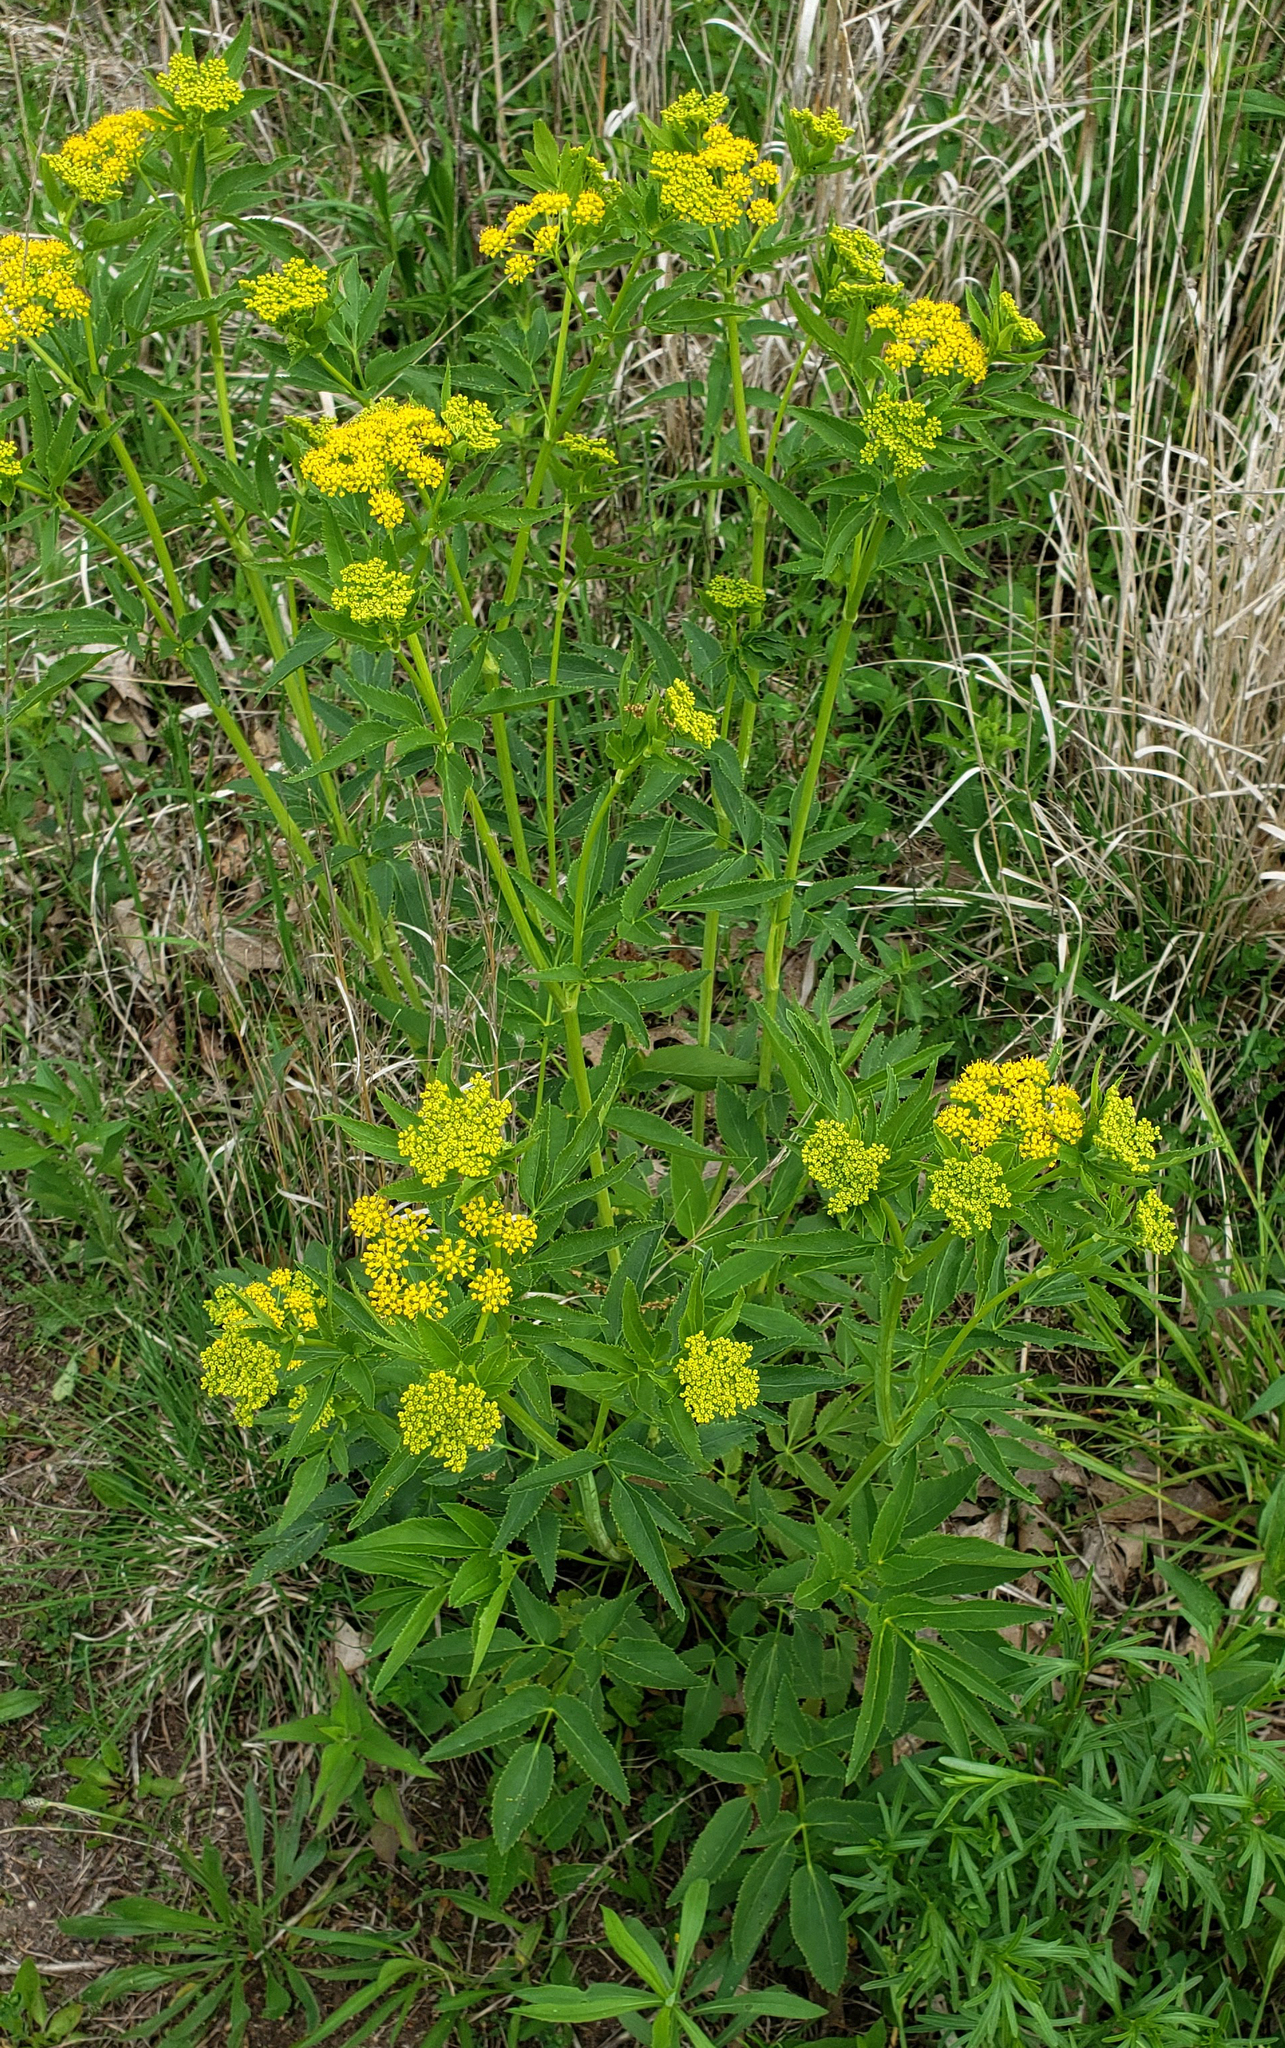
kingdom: Plantae
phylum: Tracheophyta
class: Magnoliopsida
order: Apiales
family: Apiaceae
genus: Zizia
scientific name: Zizia aurea
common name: Golden alexanders
